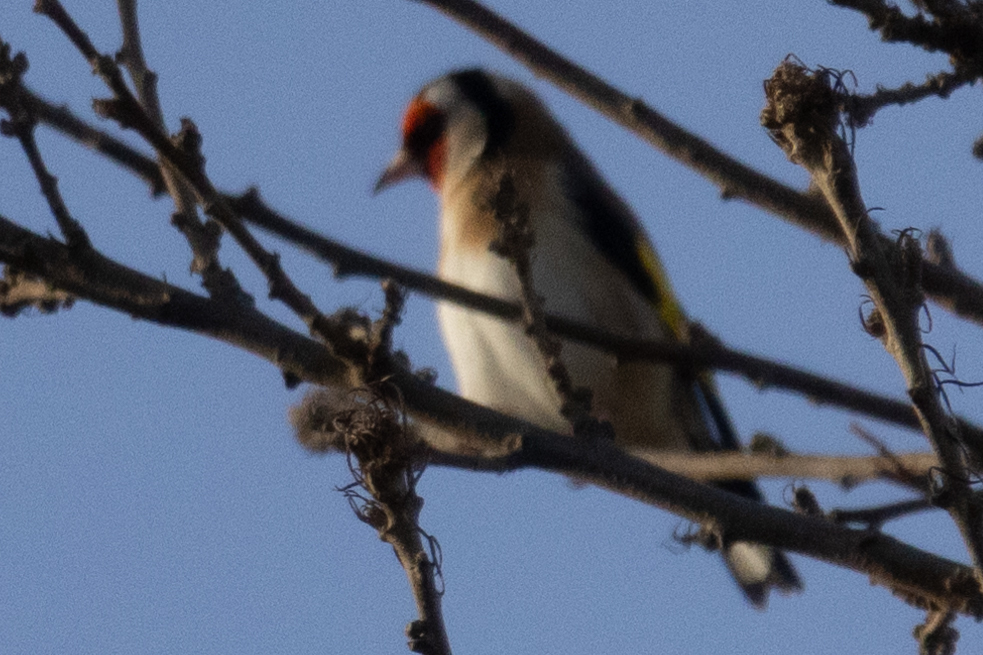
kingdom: Animalia
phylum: Chordata
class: Aves
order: Passeriformes
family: Fringillidae
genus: Carduelis
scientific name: Carduelis carduelis
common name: European goldfinch
